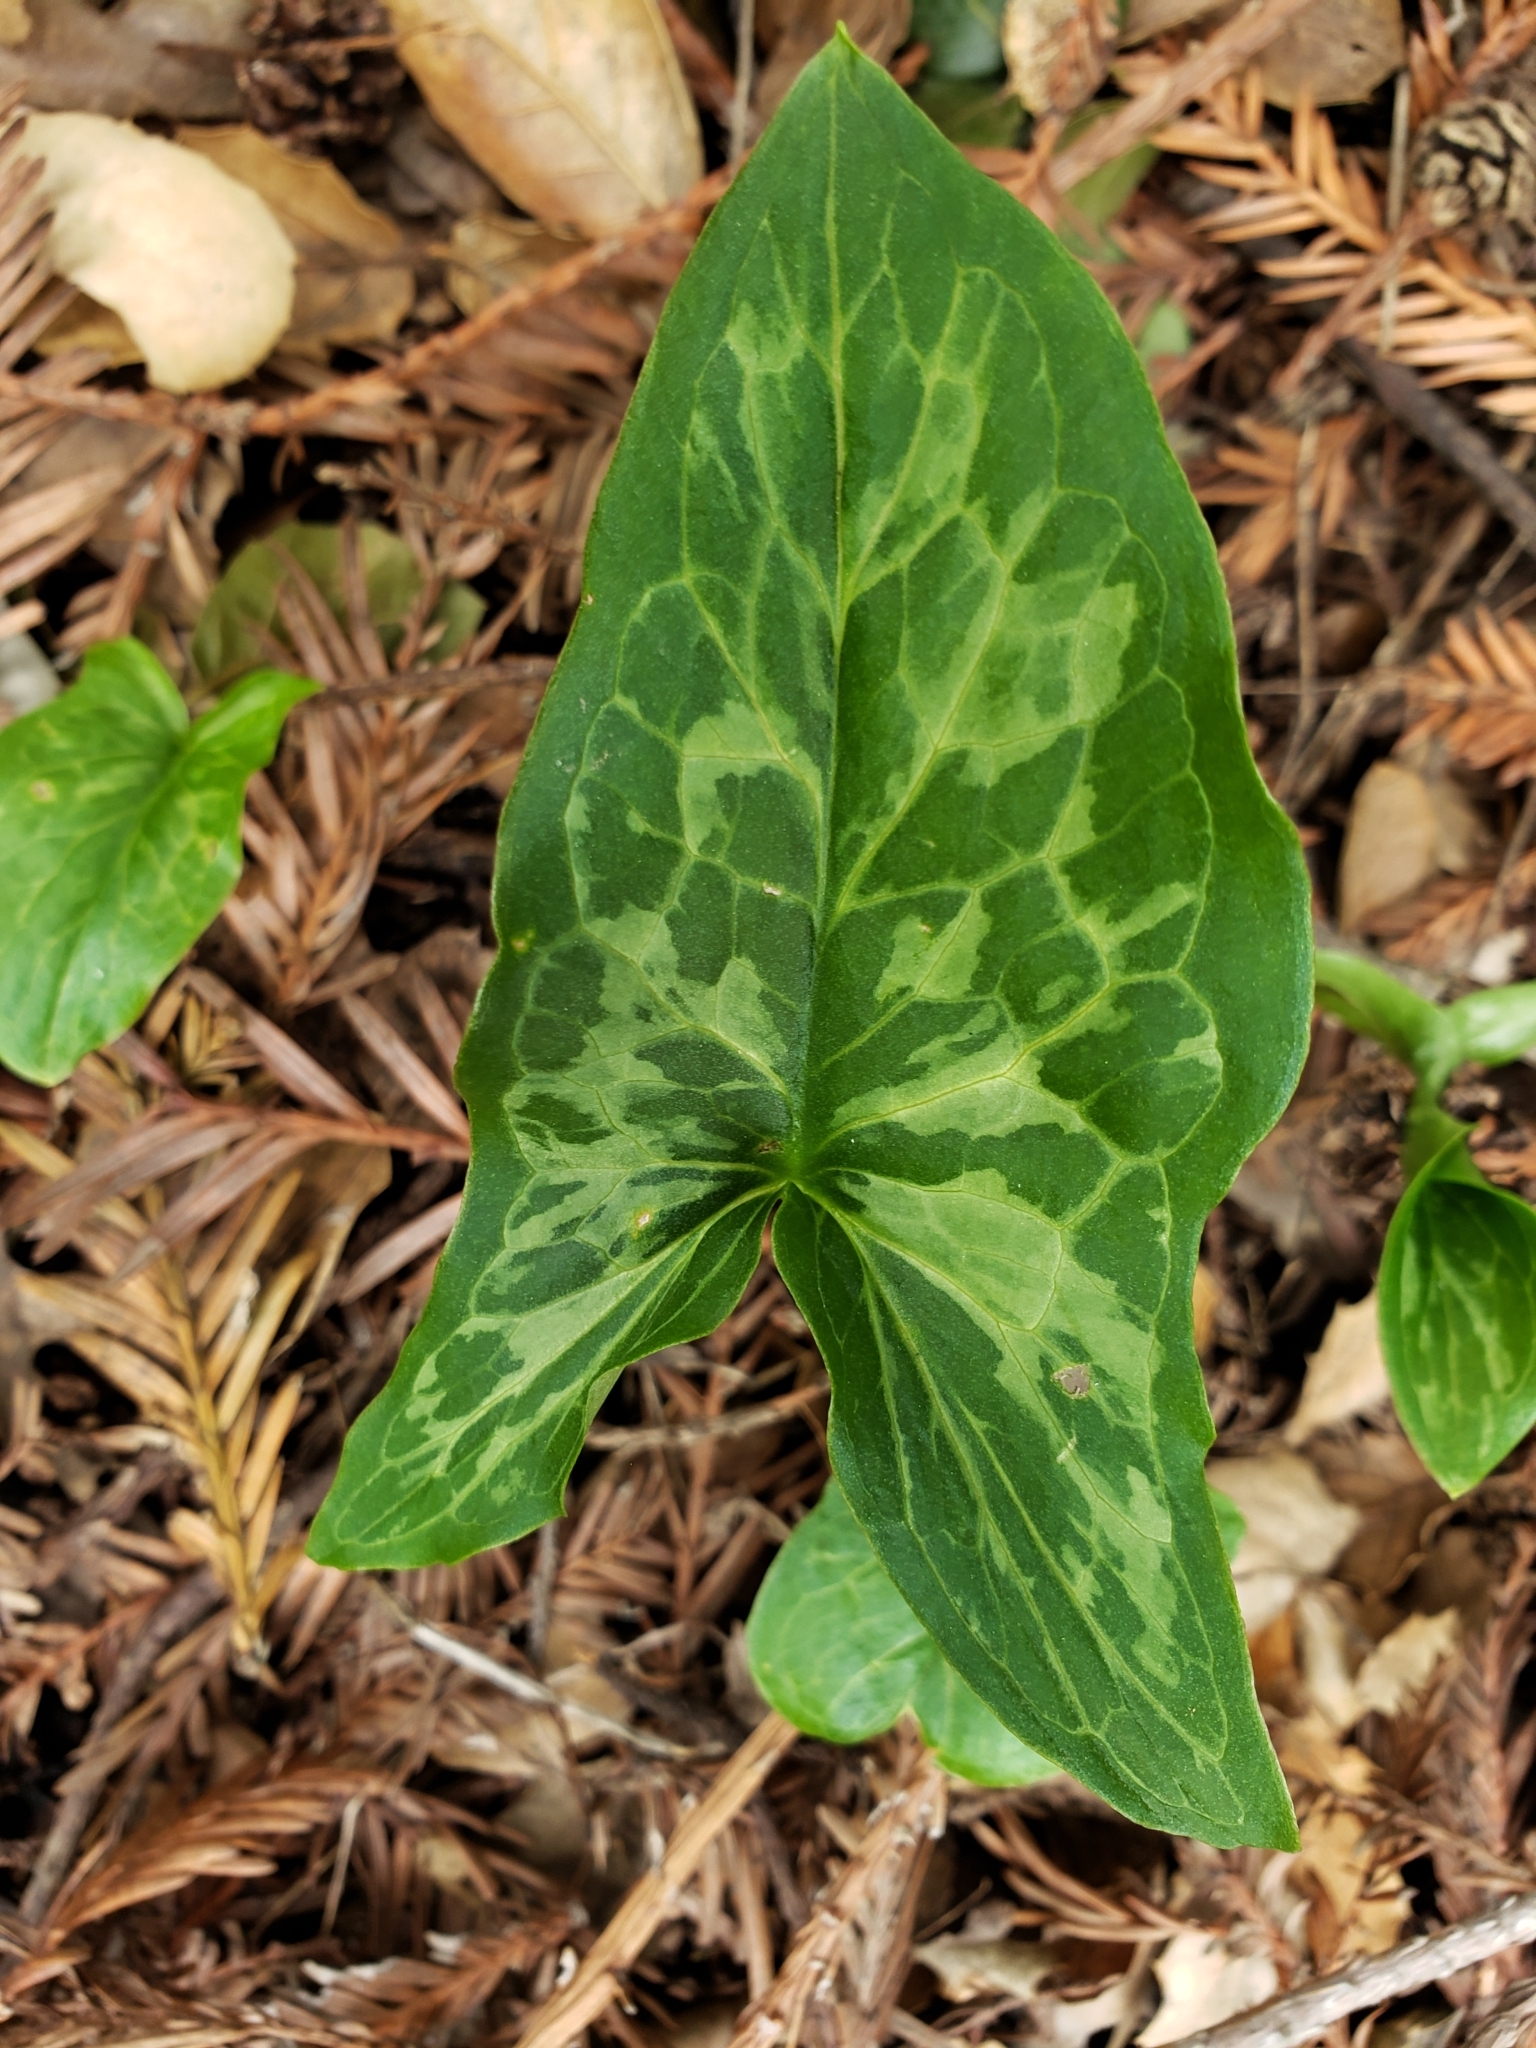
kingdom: Plantae
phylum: Tracheophyta
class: Liliopsida
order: Alismatales
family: Araceae
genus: Arum
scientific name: Arum italicum
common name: Italian lords-and-ladies
